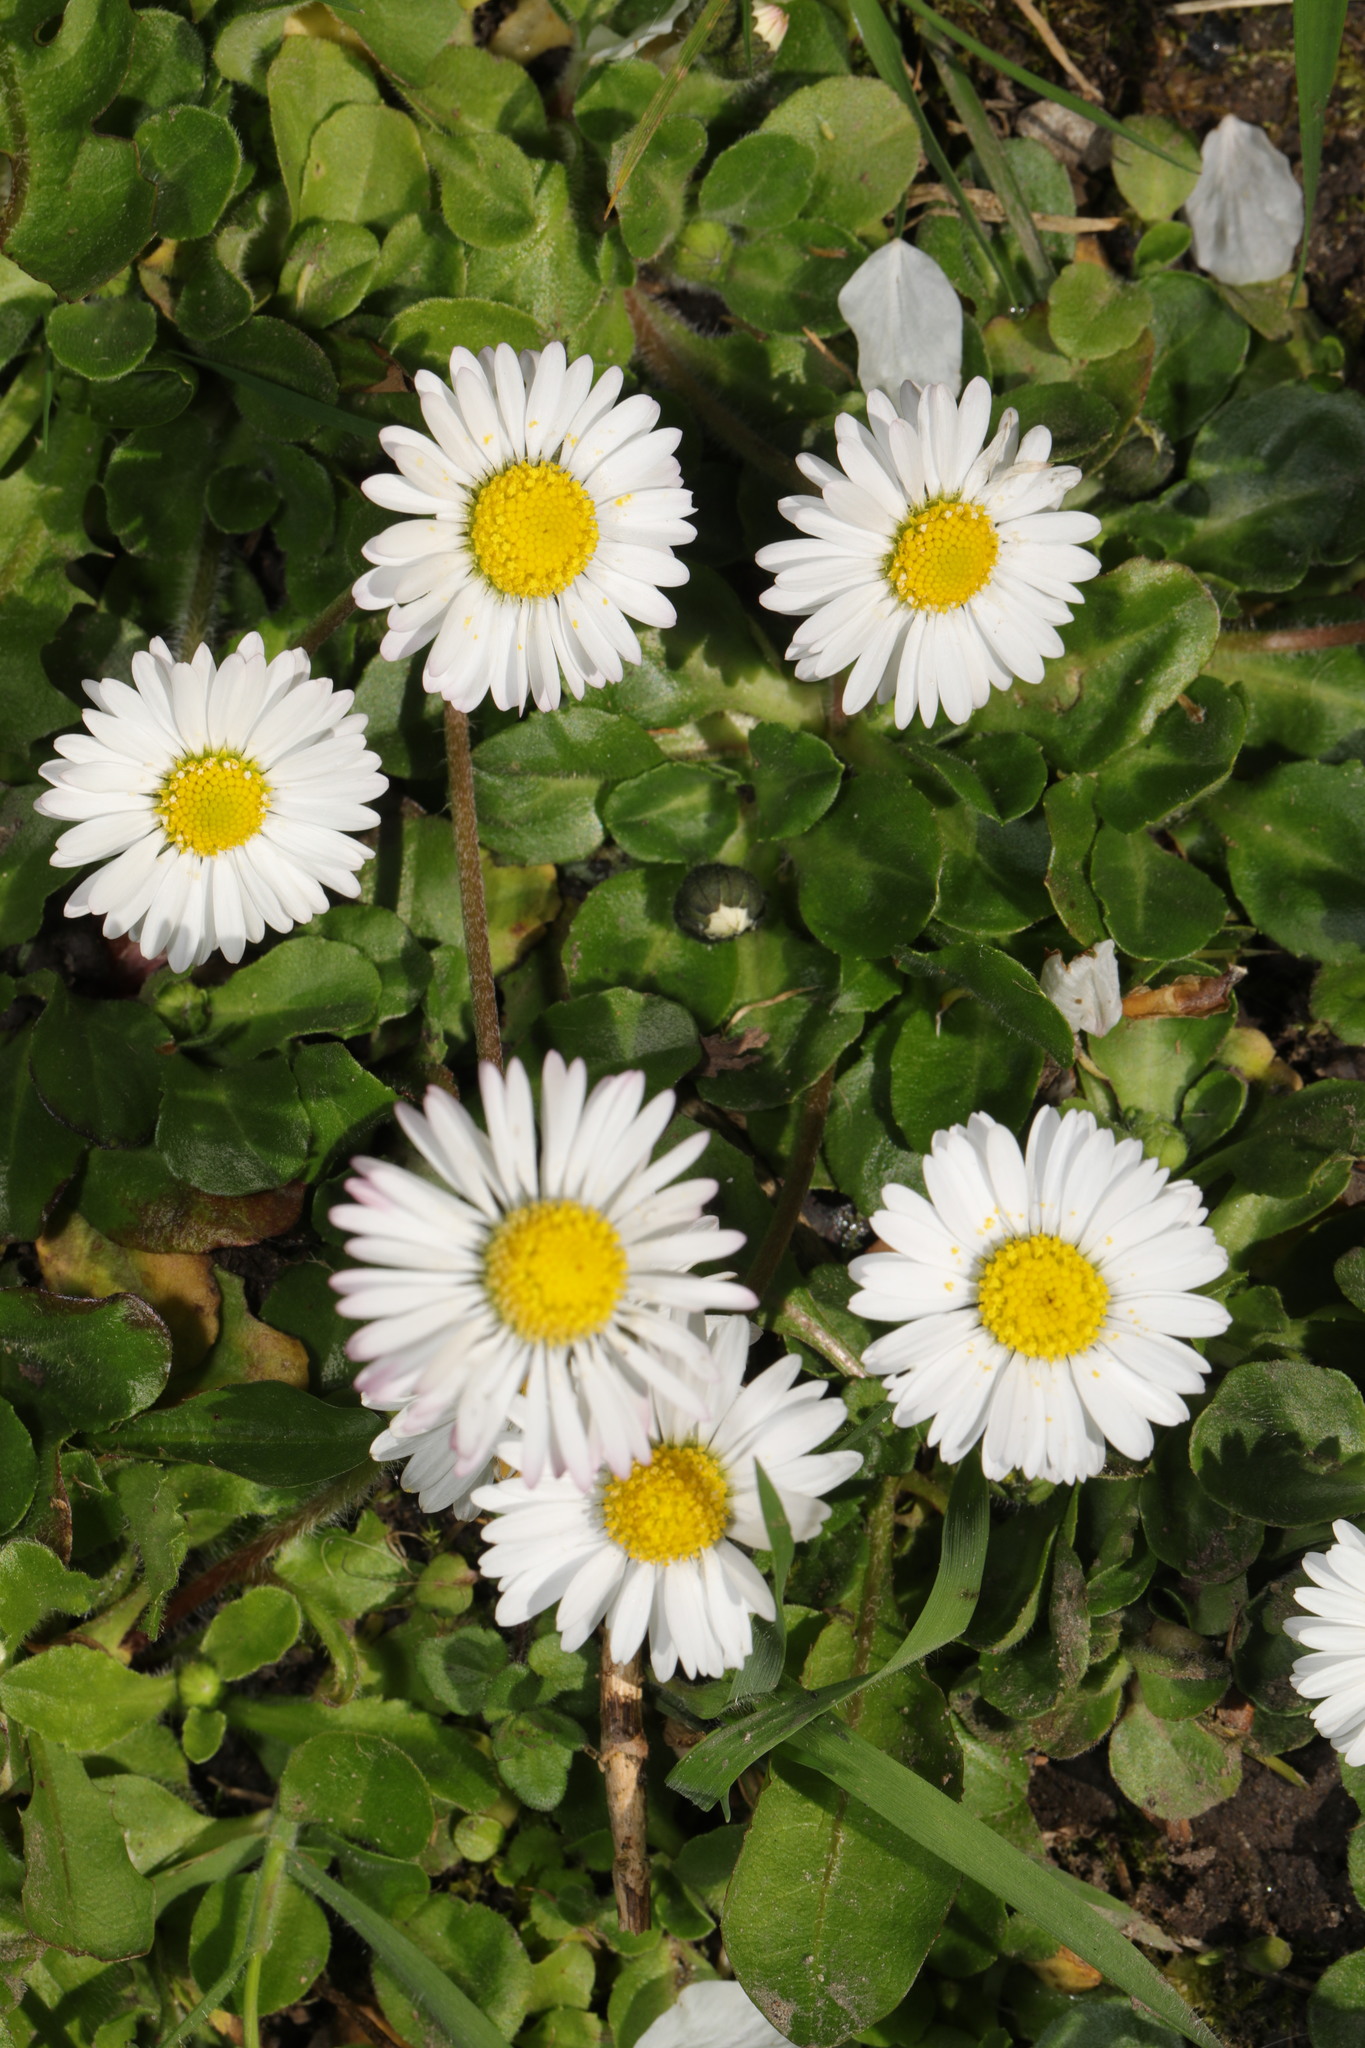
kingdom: Plantae
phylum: Tracheophyta
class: Magnoliopsida
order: Asterales
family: Asteraceae
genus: Bellis
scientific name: Bellis perennis
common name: Lawndaisy
